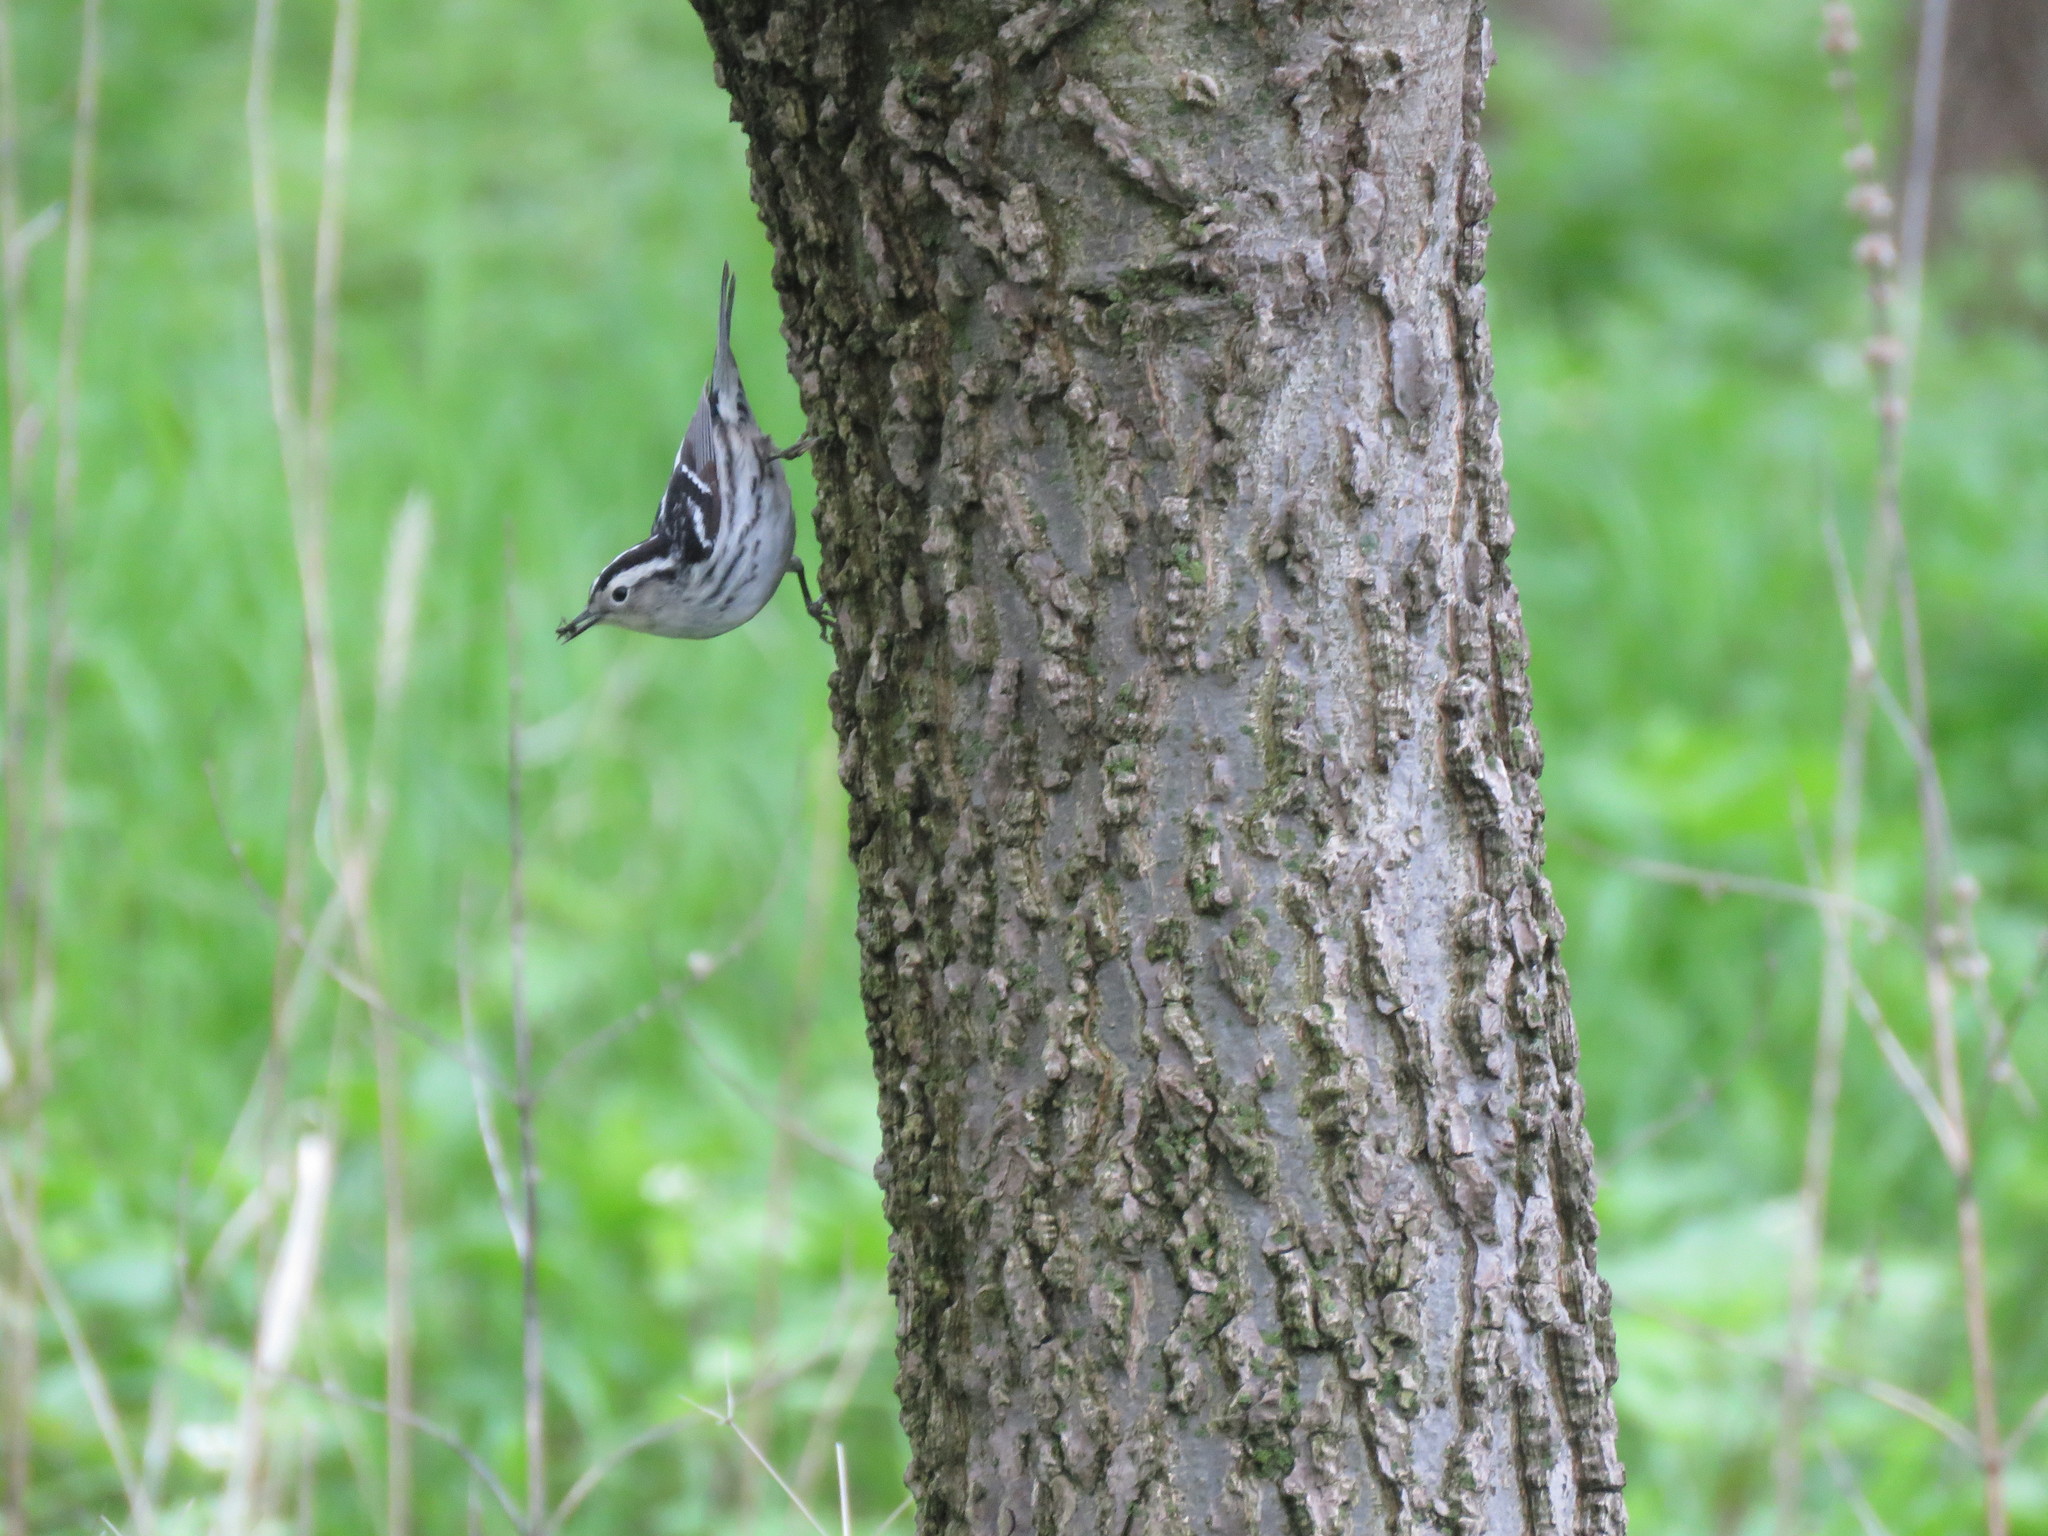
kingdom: Animalia
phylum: Chordata
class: Aves
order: Passeriformes
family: Parulidae
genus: Mniotilta
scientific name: Mniotilta varia
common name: Black-and-white warbler
